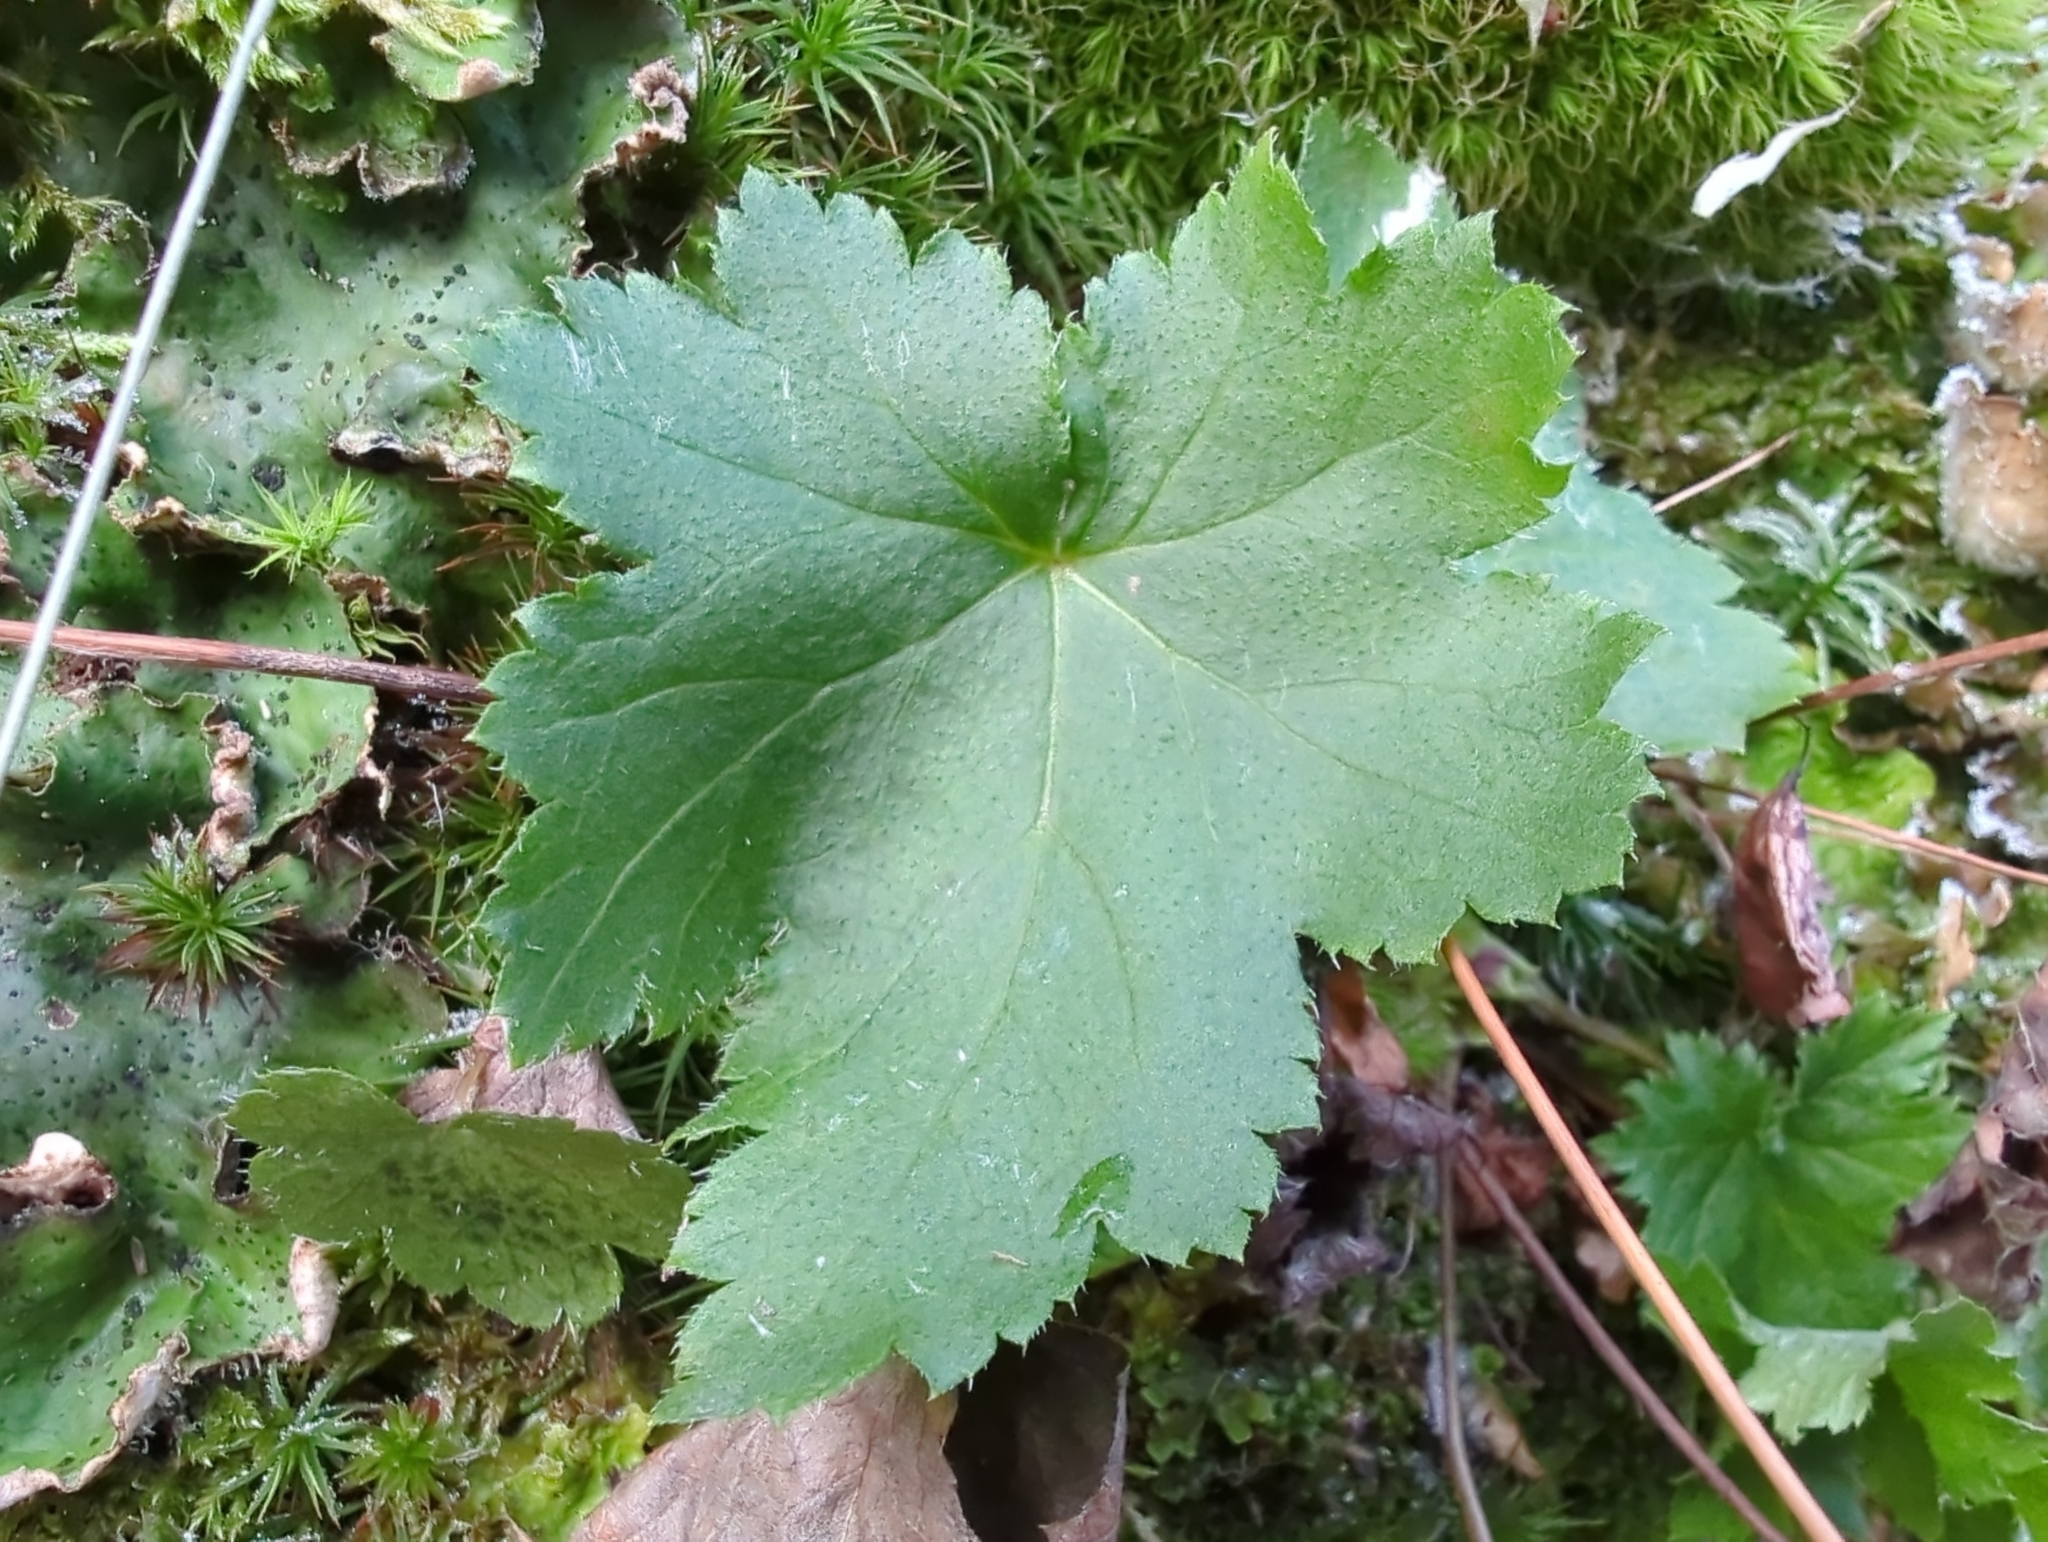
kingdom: Plantae
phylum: Tracheophyta
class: Magnoliopsida
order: Saxifragales
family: Saxifragaceae
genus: Heuchera
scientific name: Heuchera glabra
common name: Alpine alumroot
